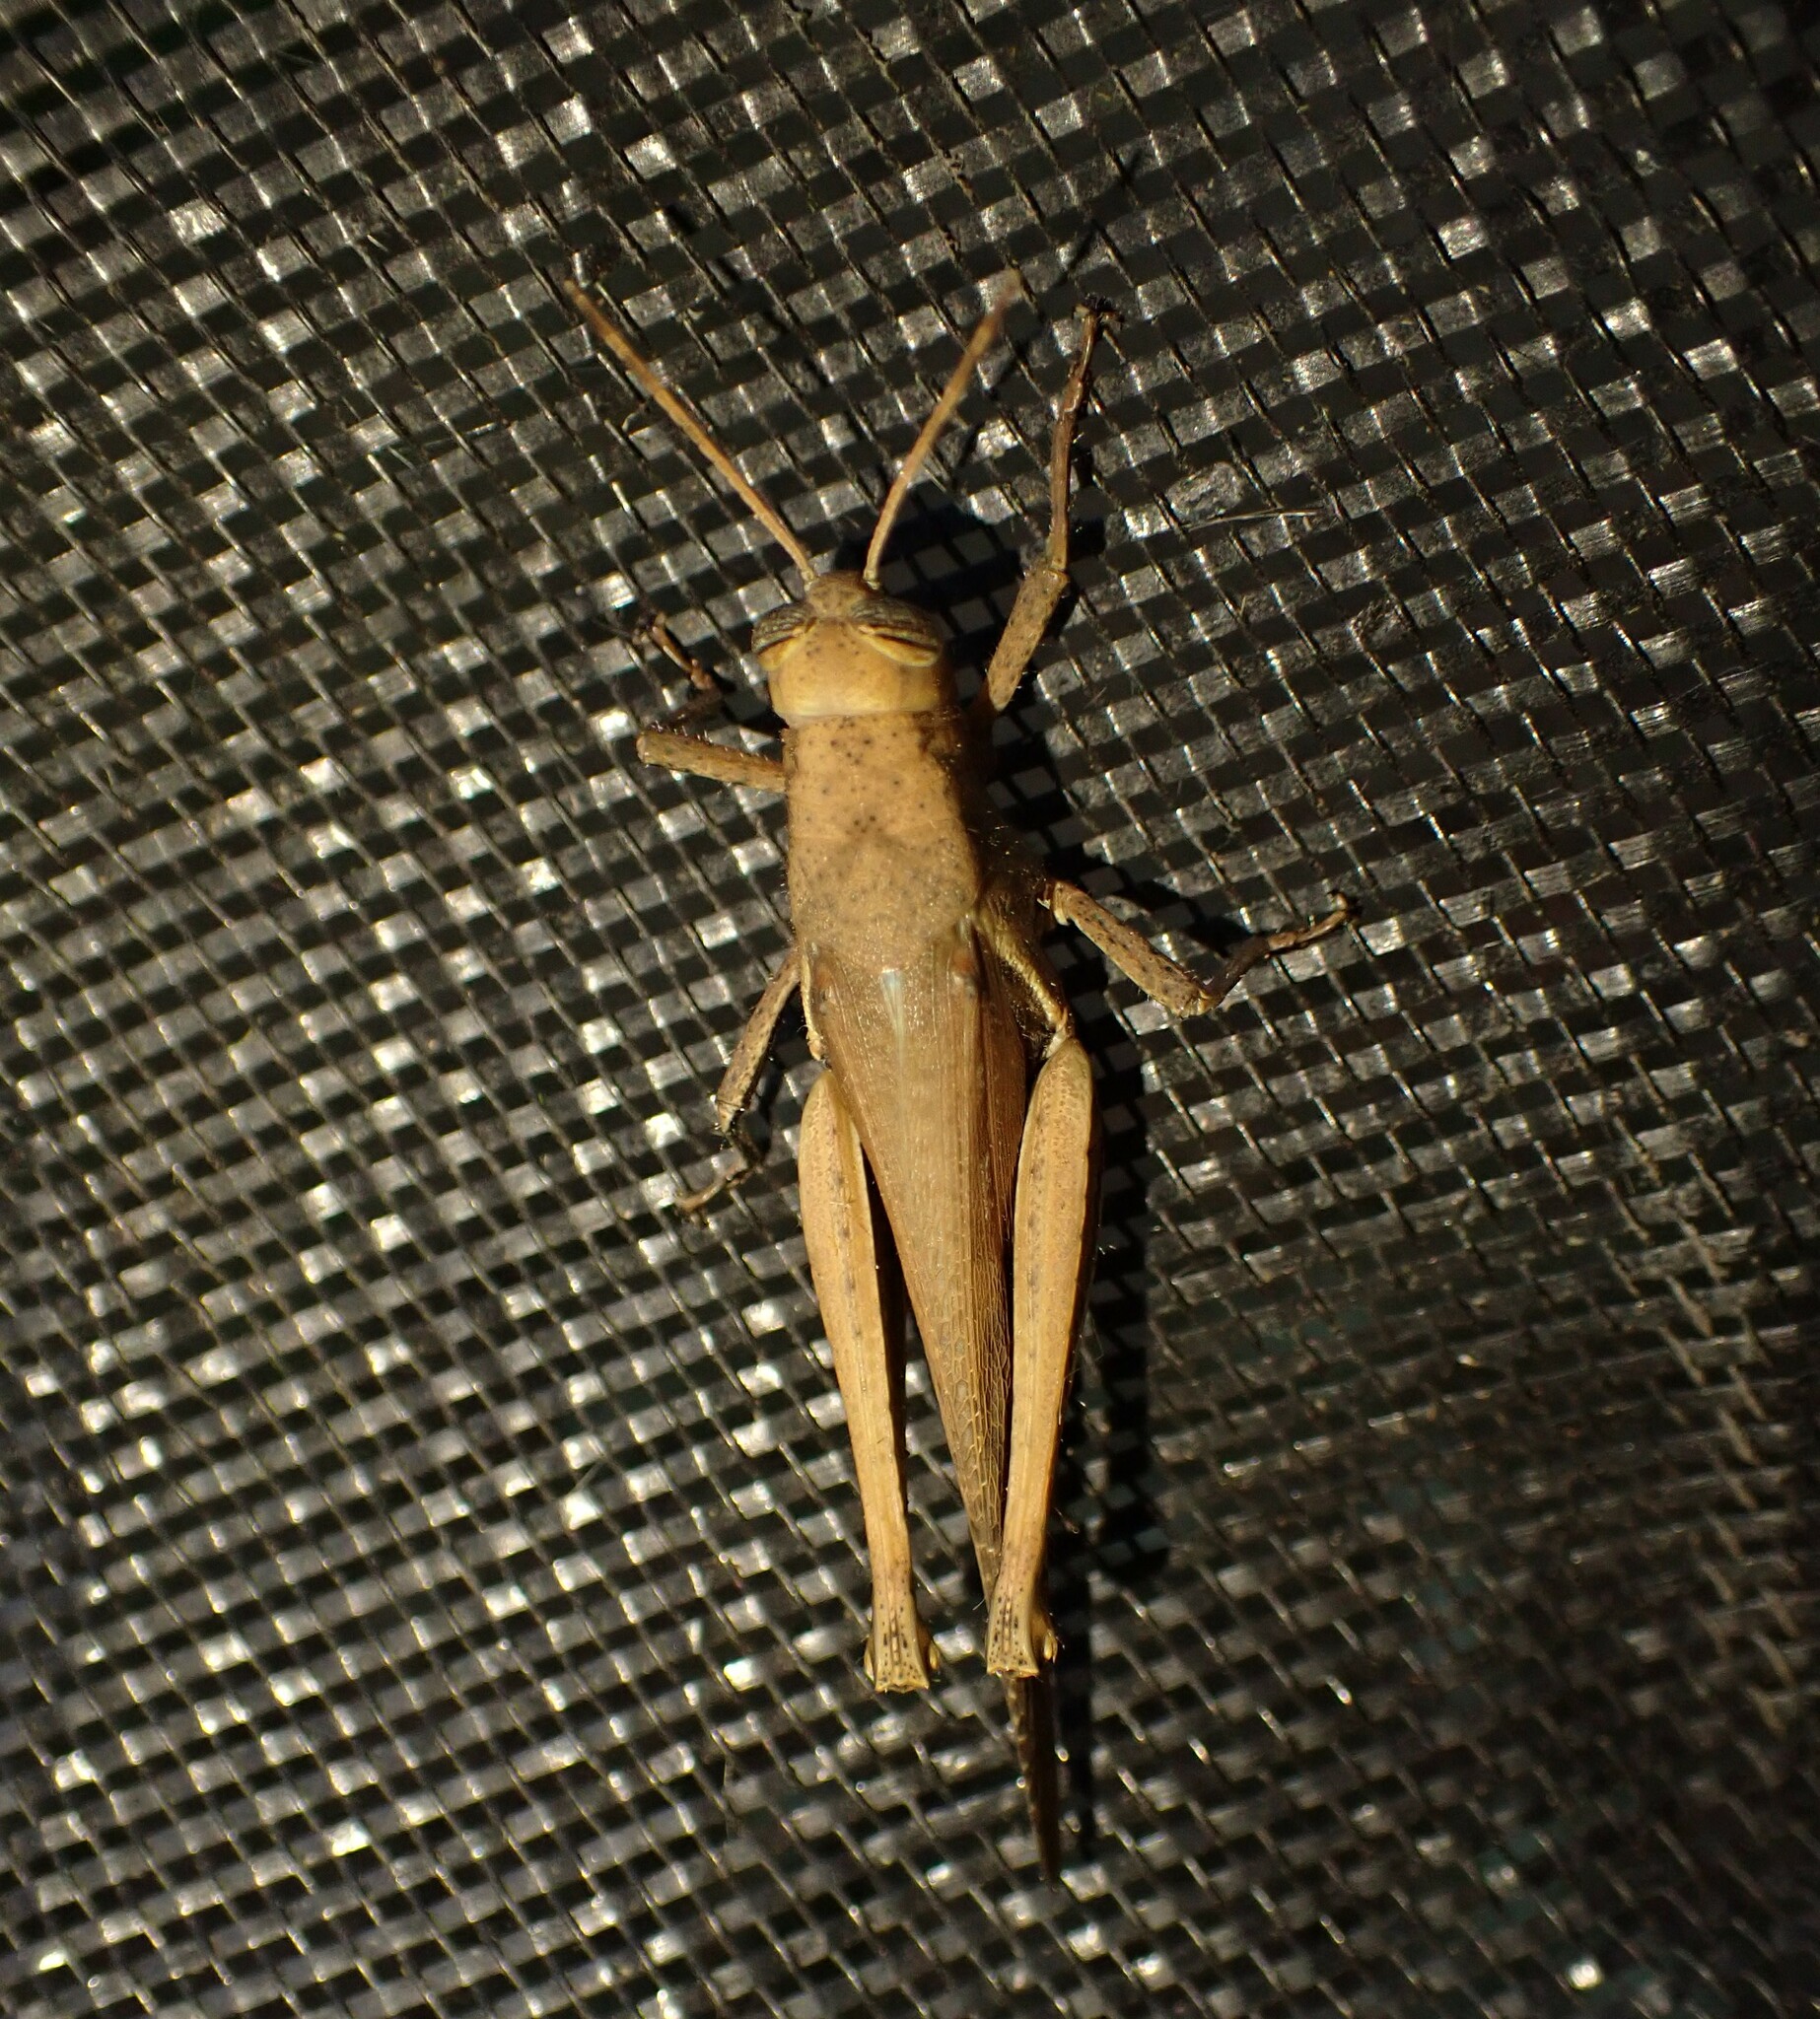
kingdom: Animalia
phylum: Arthropoda
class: Insecta
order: Orthoptera
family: Acrididae
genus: Abracris
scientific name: Abracris flavolineata
